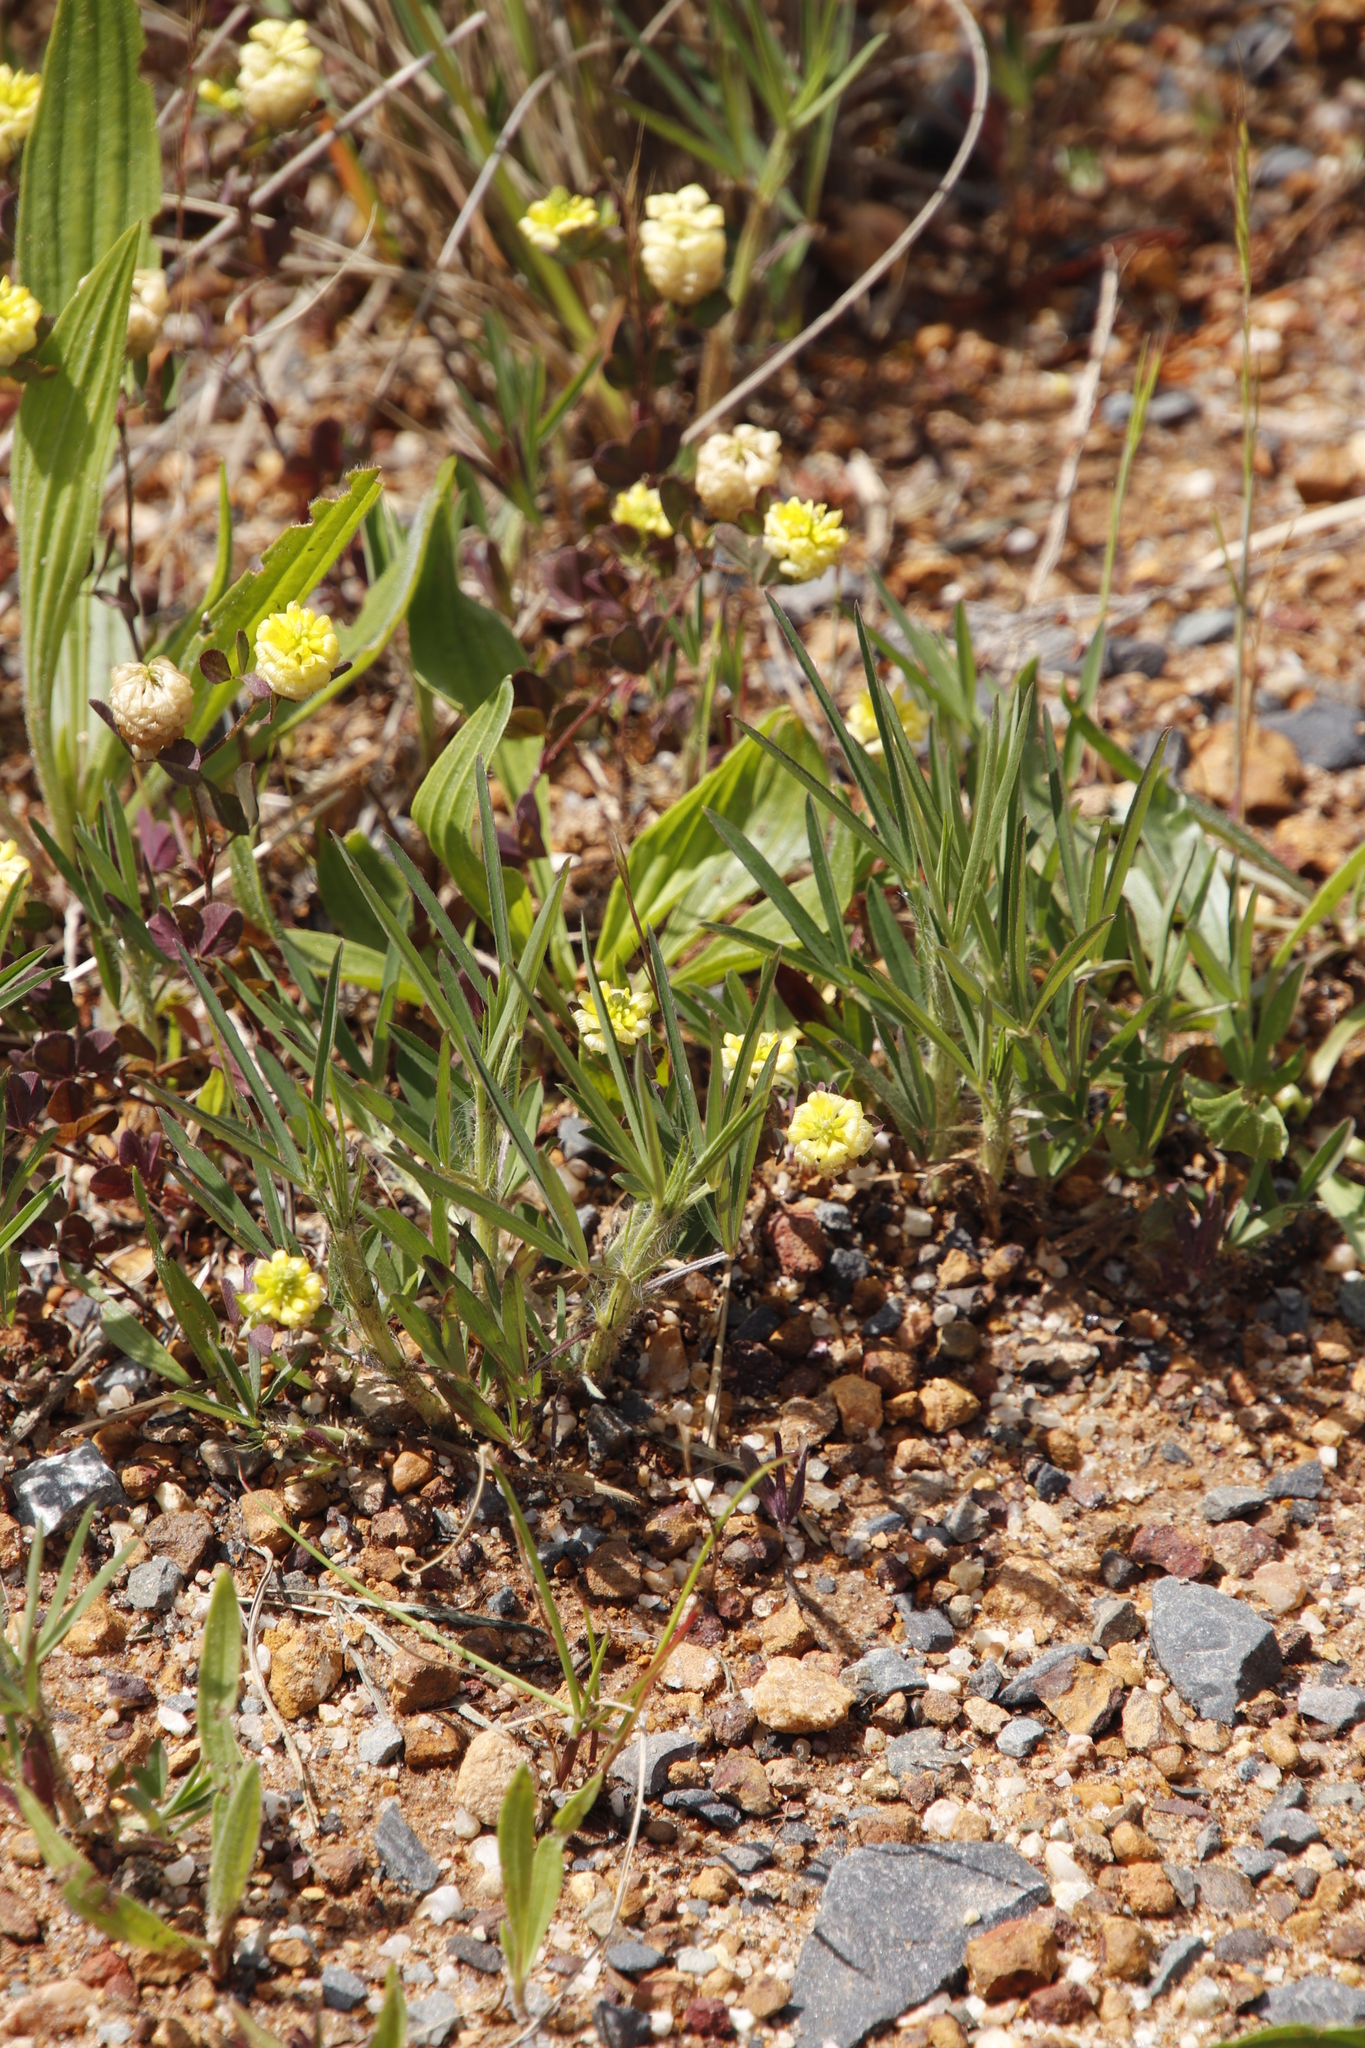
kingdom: Plantae
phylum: Tracheophyta
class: Magnoliopsida
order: Fabales
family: Fabaceae
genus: Trifolium
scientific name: Trifolium campestre
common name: Field clover
